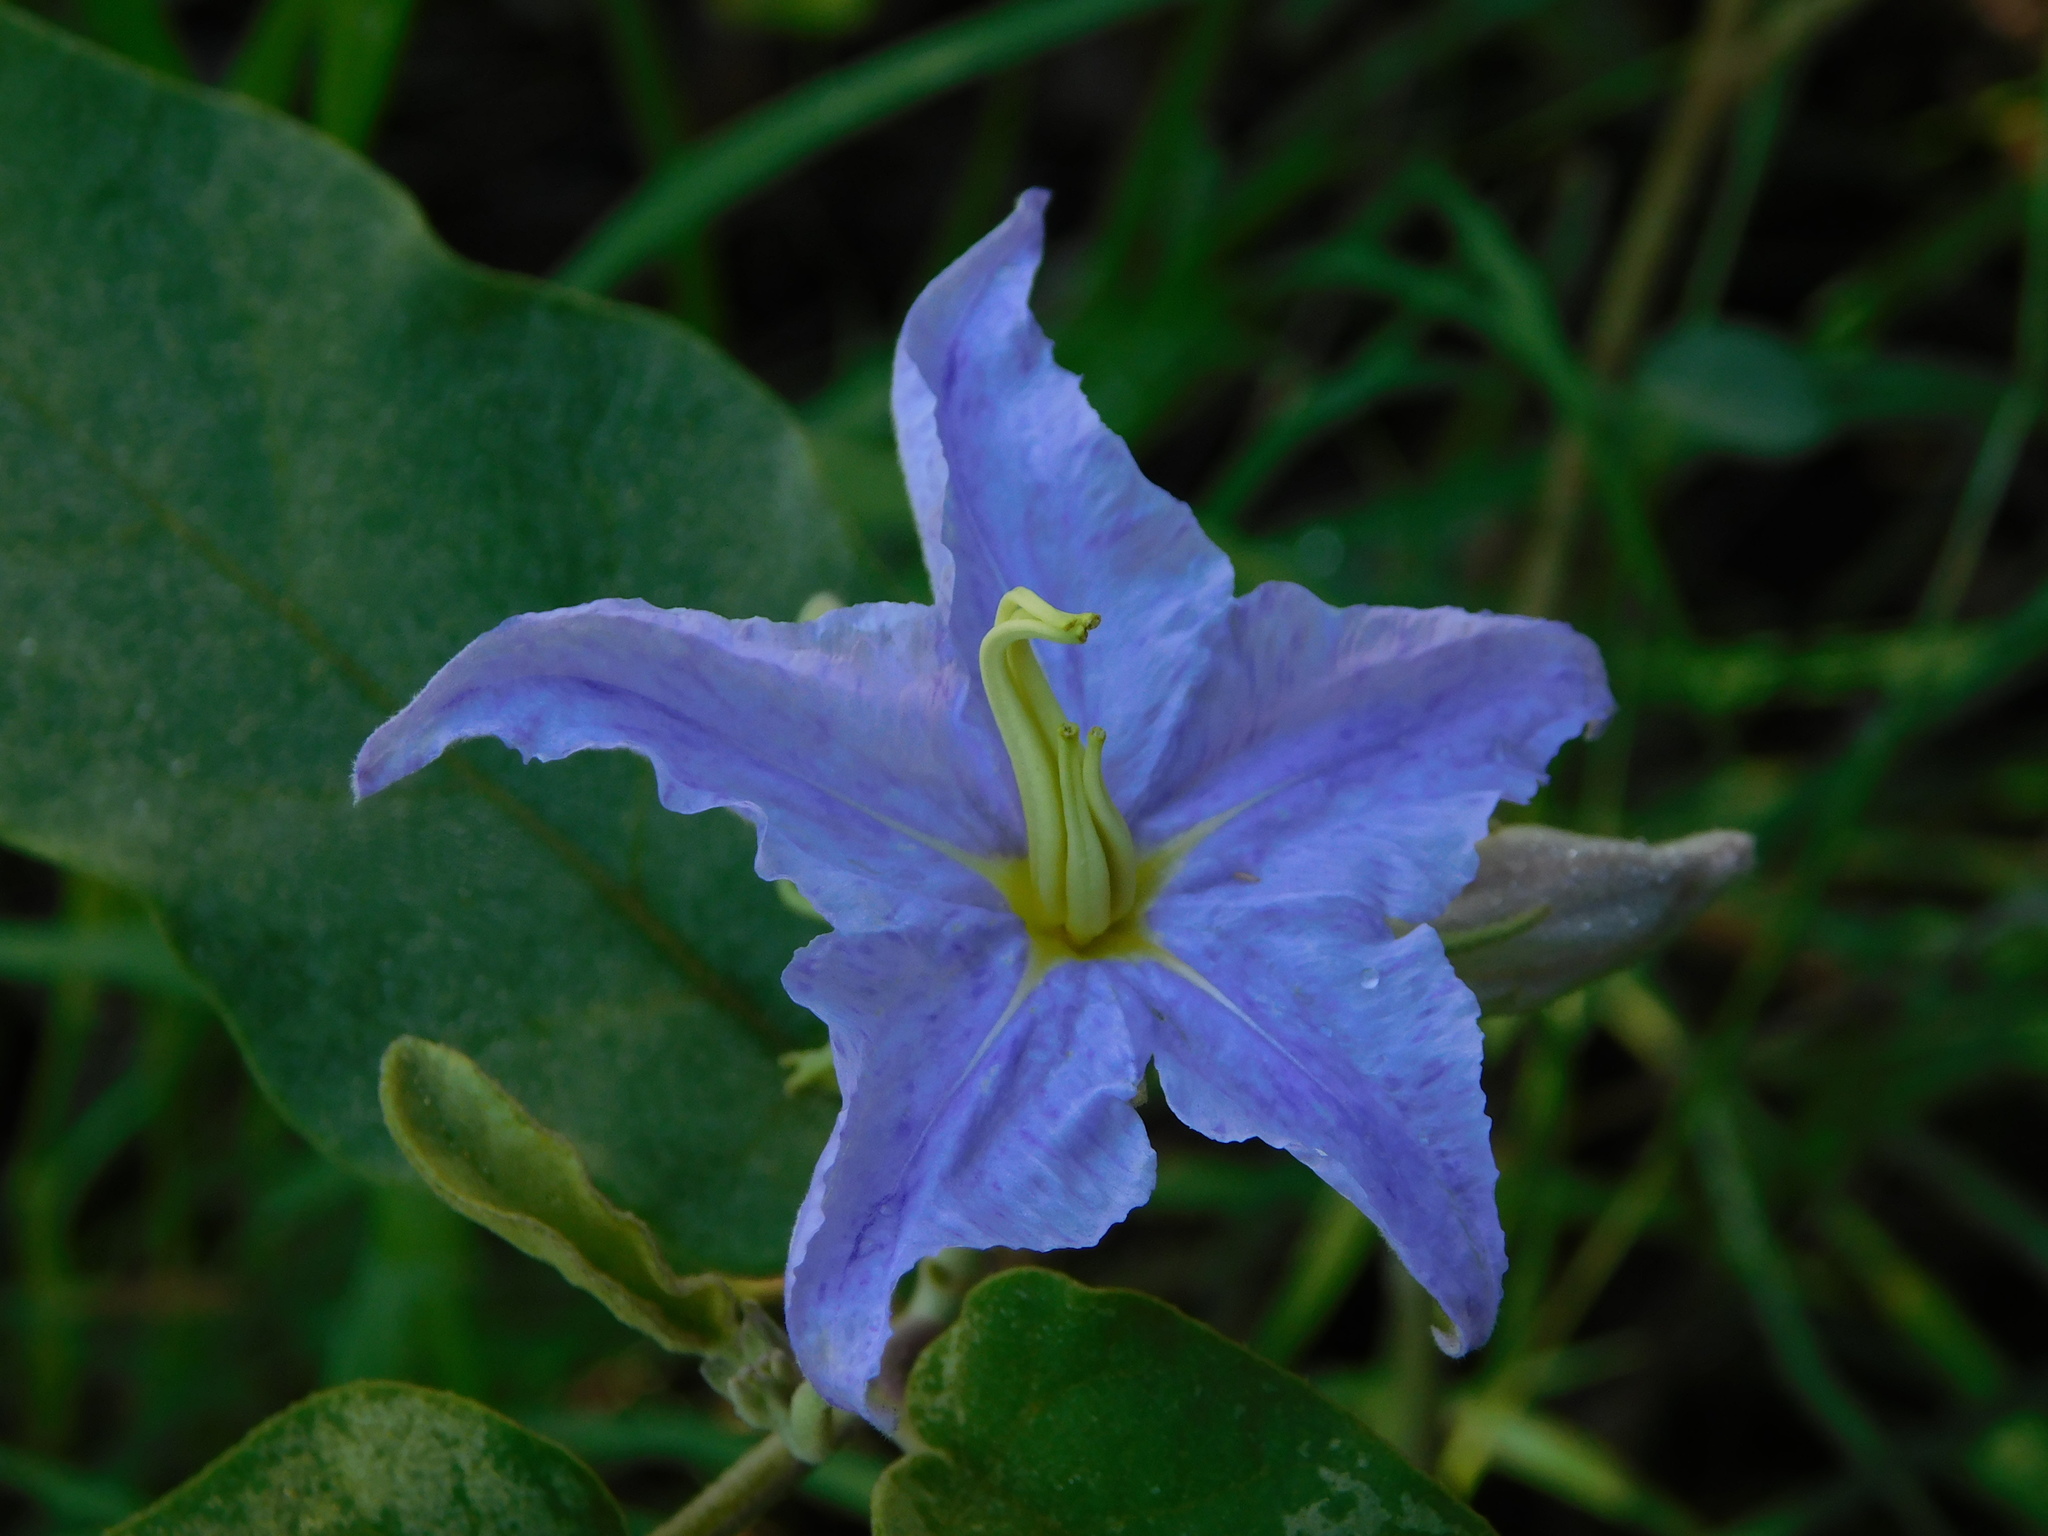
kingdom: Plantae
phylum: Tracheophyta
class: Magnoliopsida
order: Solanales
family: Solanaceae
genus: Solanum
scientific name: Solanum houstonii
